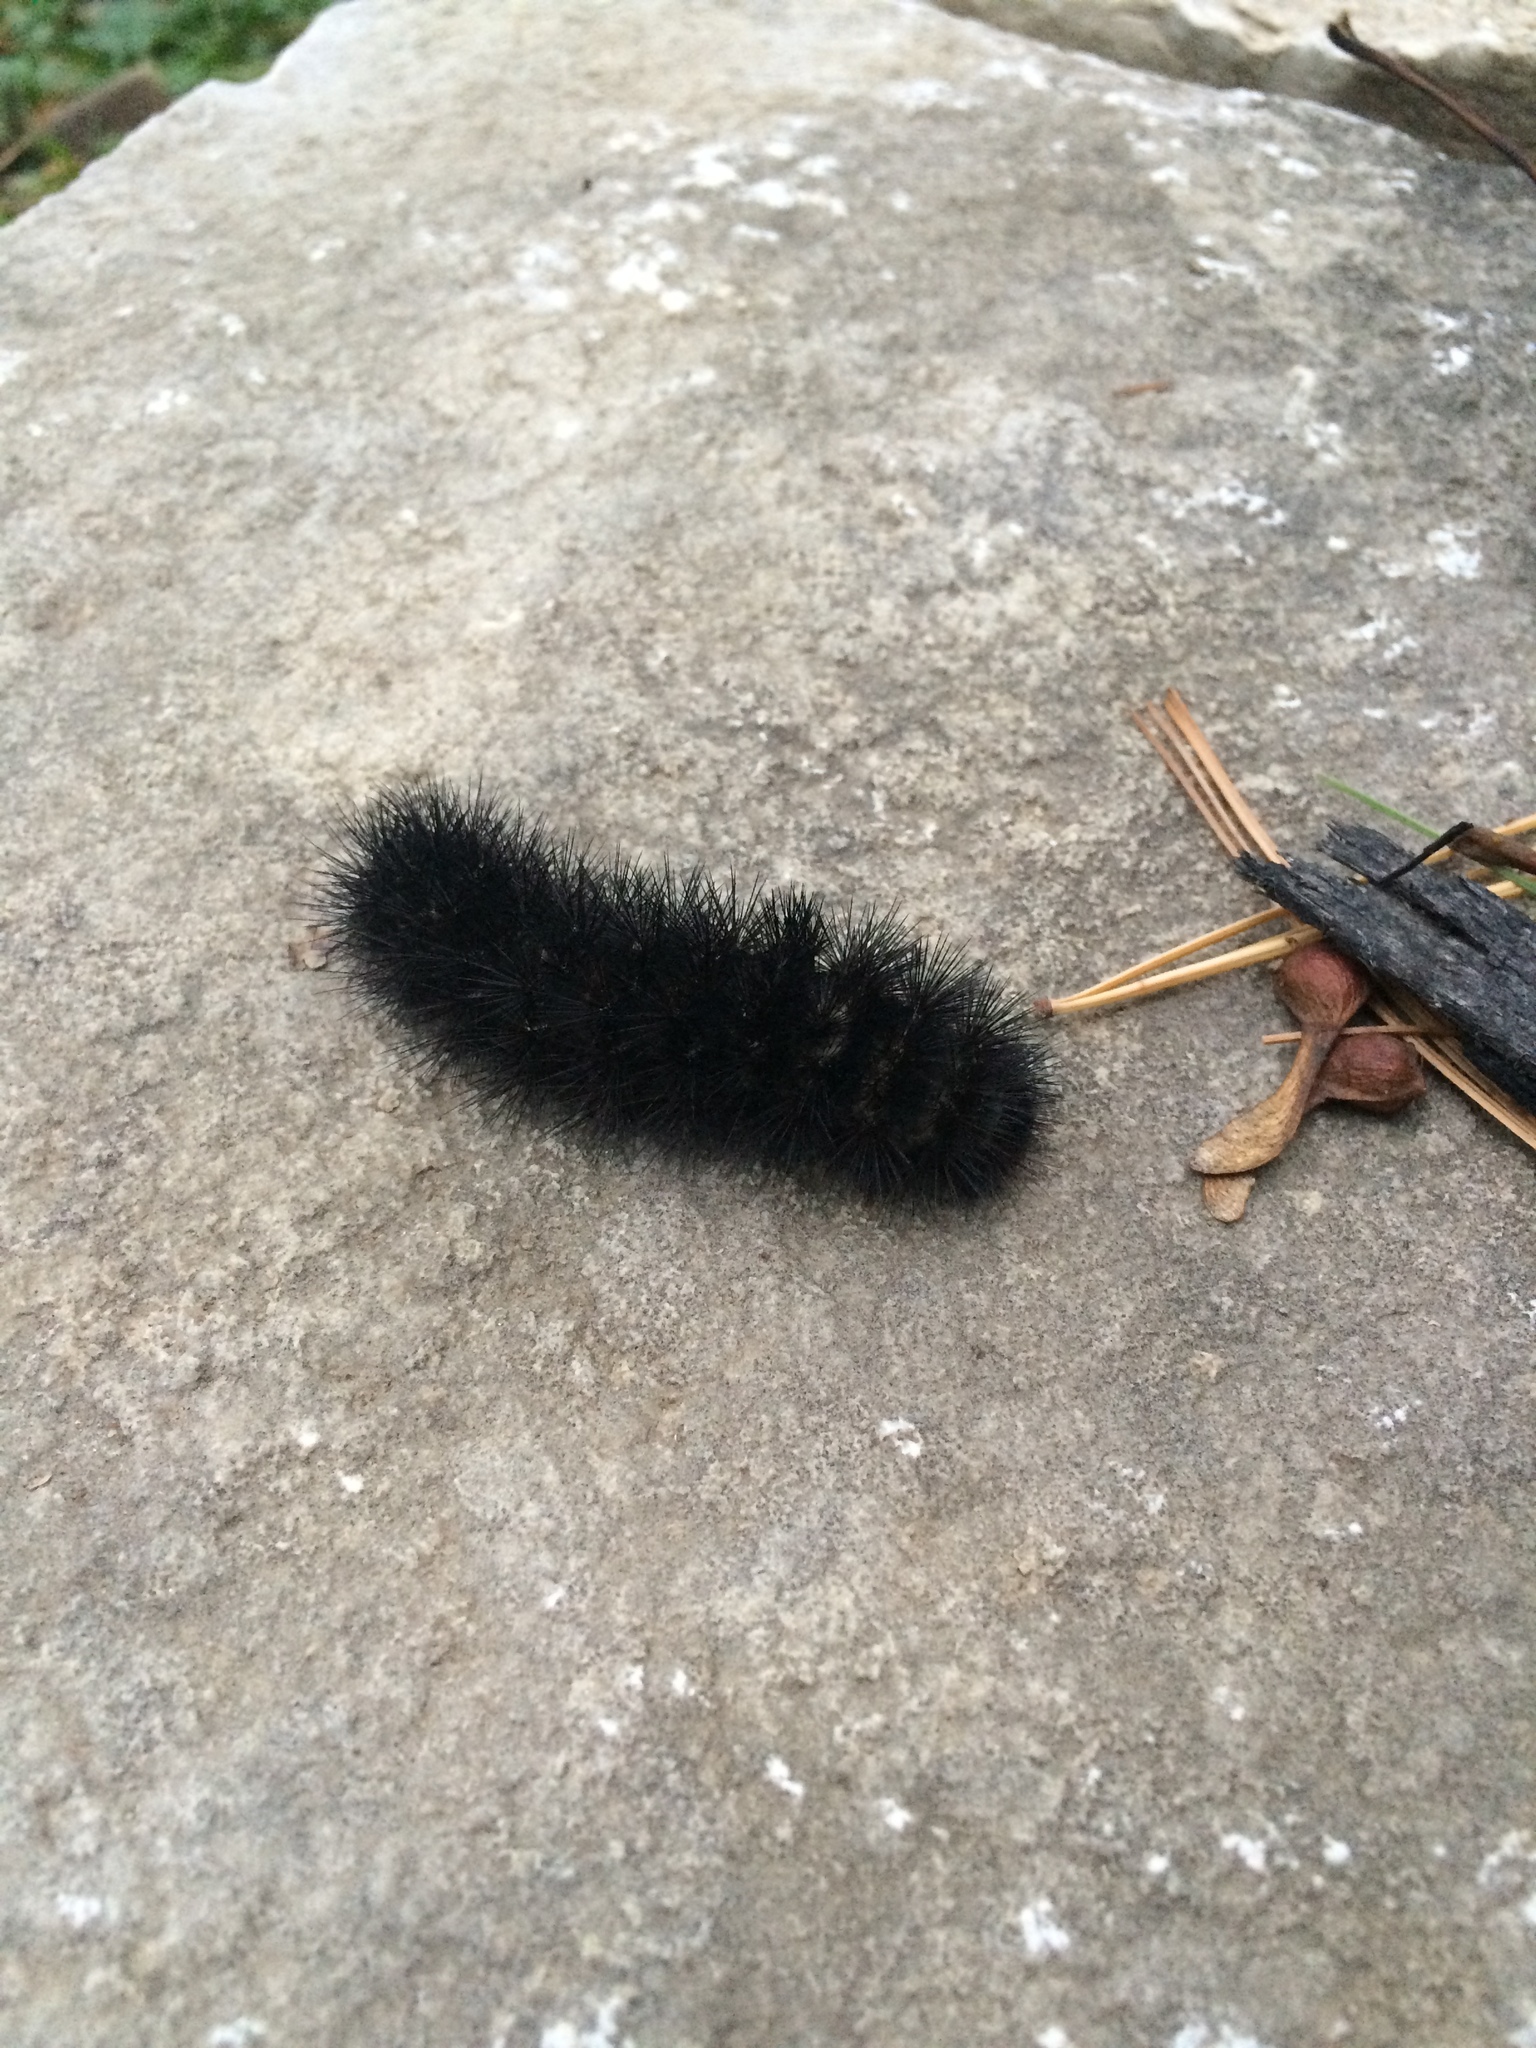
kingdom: Animalia
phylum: Arthropoda
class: Insecta
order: Lepidoptera
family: Erebidae
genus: Hypercompe
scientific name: Hypercompe scribonia
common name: Giant leopard moth
